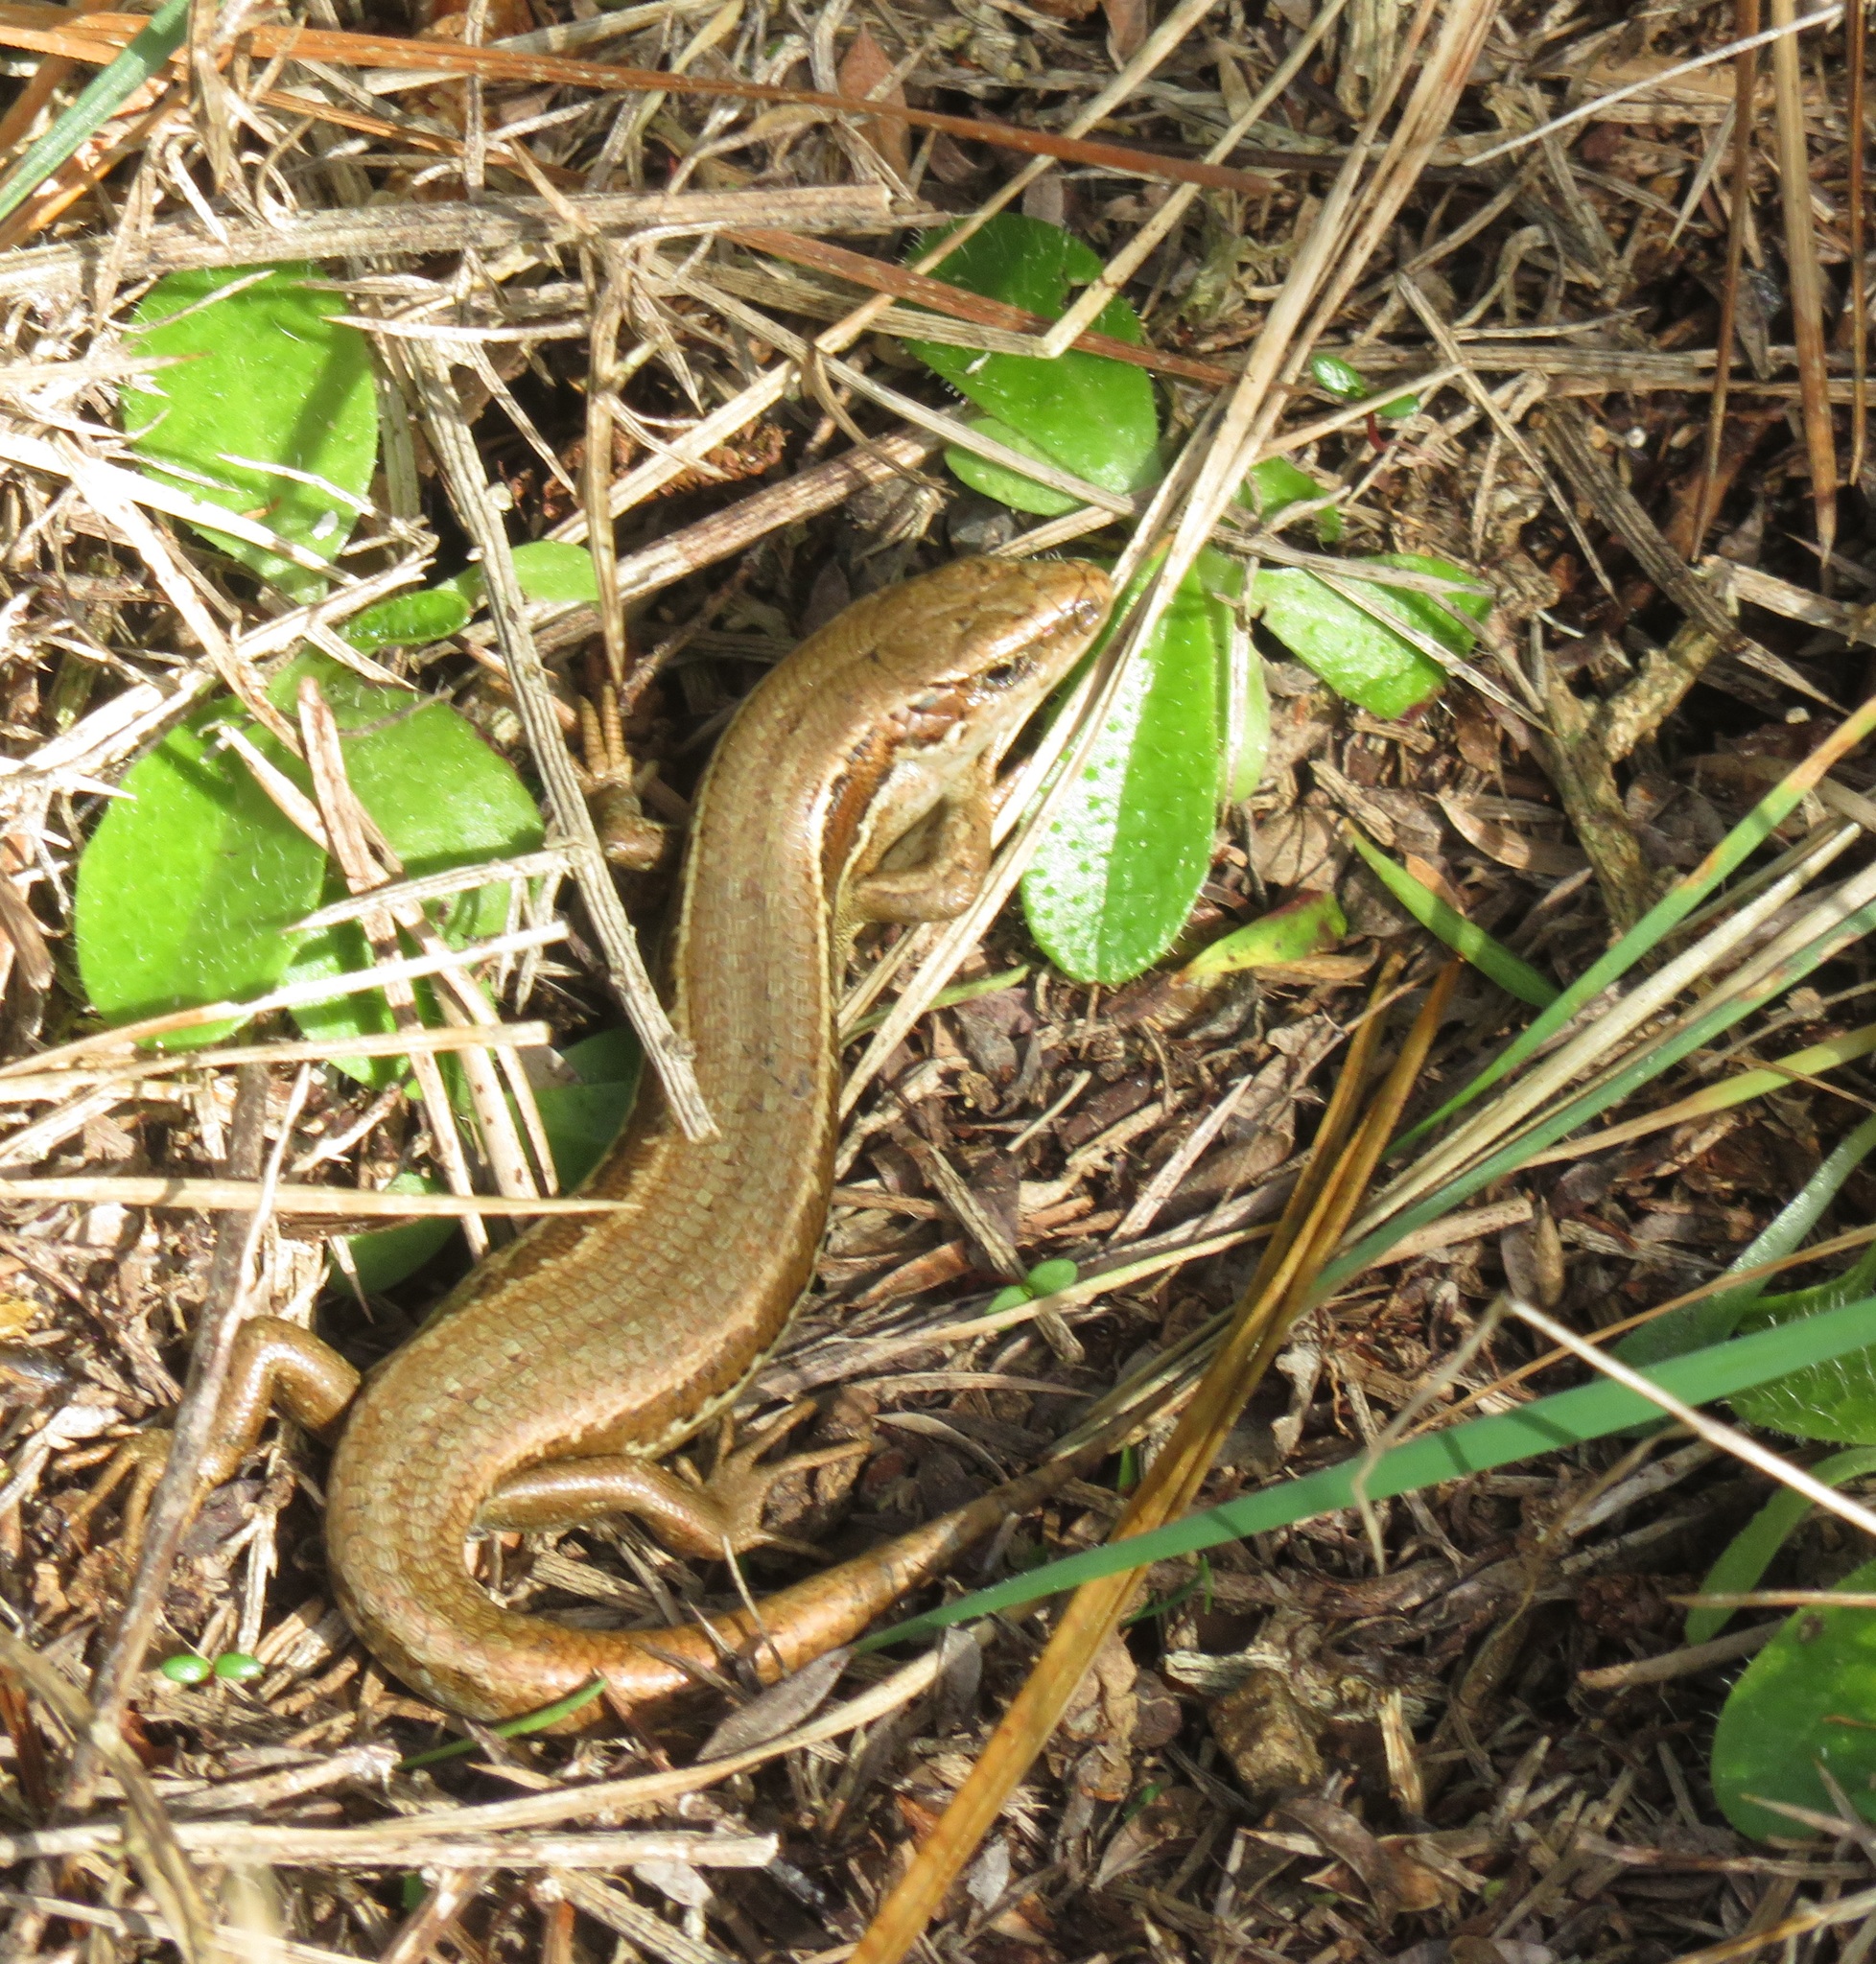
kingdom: Animalia
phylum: Chordata
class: Squamata
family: Scincidae
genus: Oligosoma
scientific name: Oligosoma polychroma
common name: Common new zealand skink
